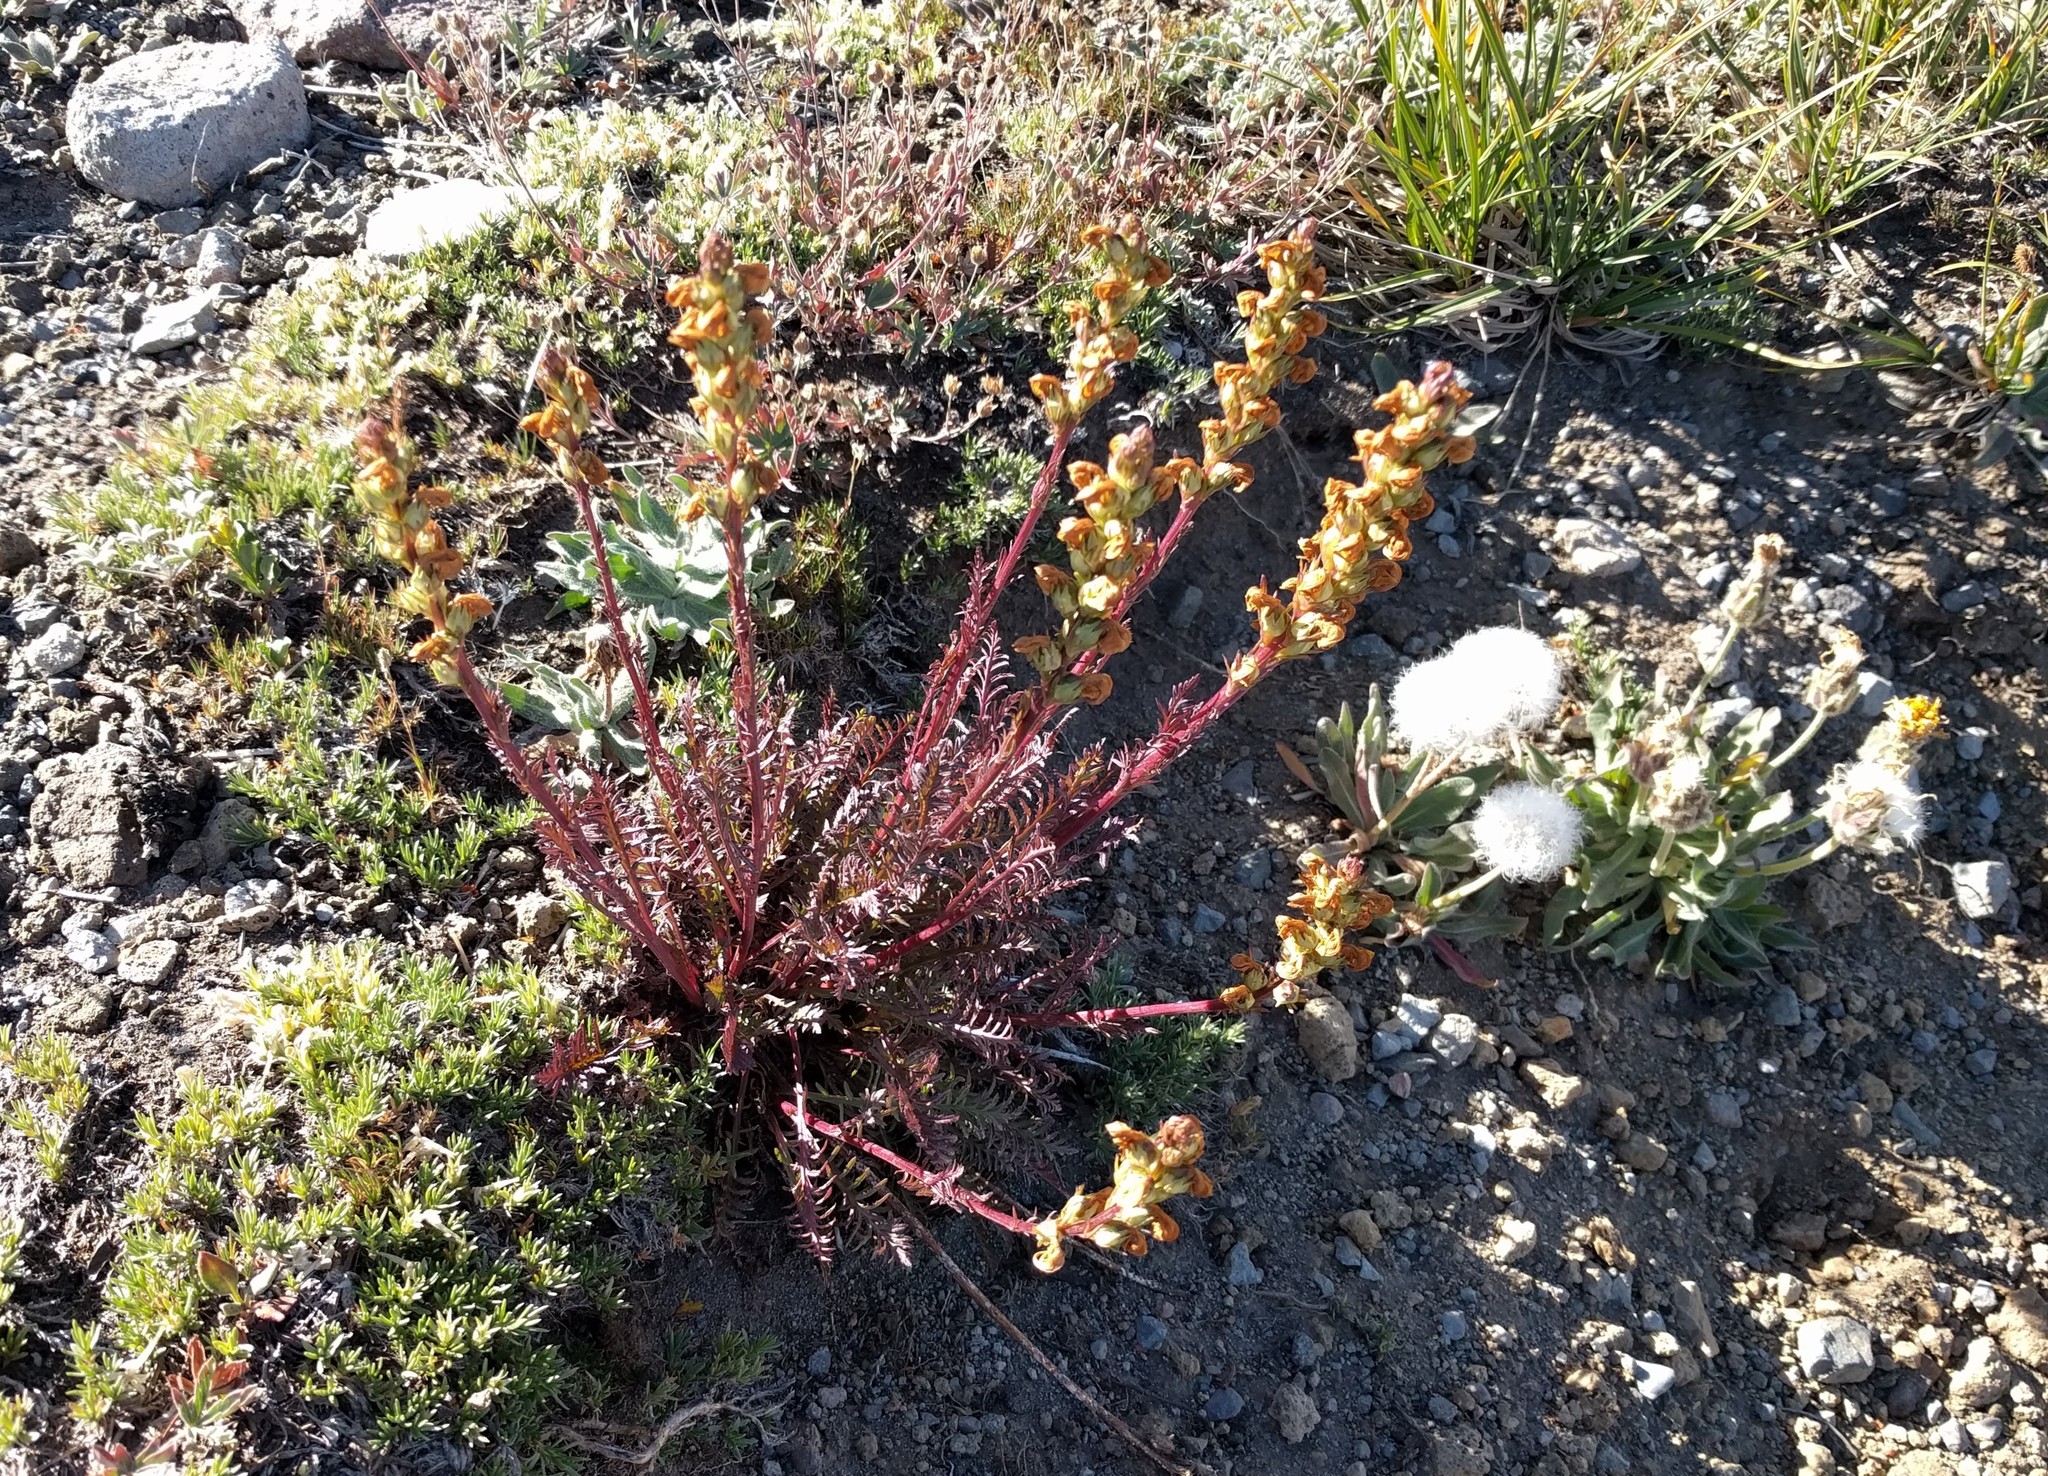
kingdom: Plantae
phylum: Tracheophyta
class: Magnoliopsida
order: Lamiales
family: Orobanchaceae
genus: Pedicularis
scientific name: Pedicularis contorta
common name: Coiled lousewort
